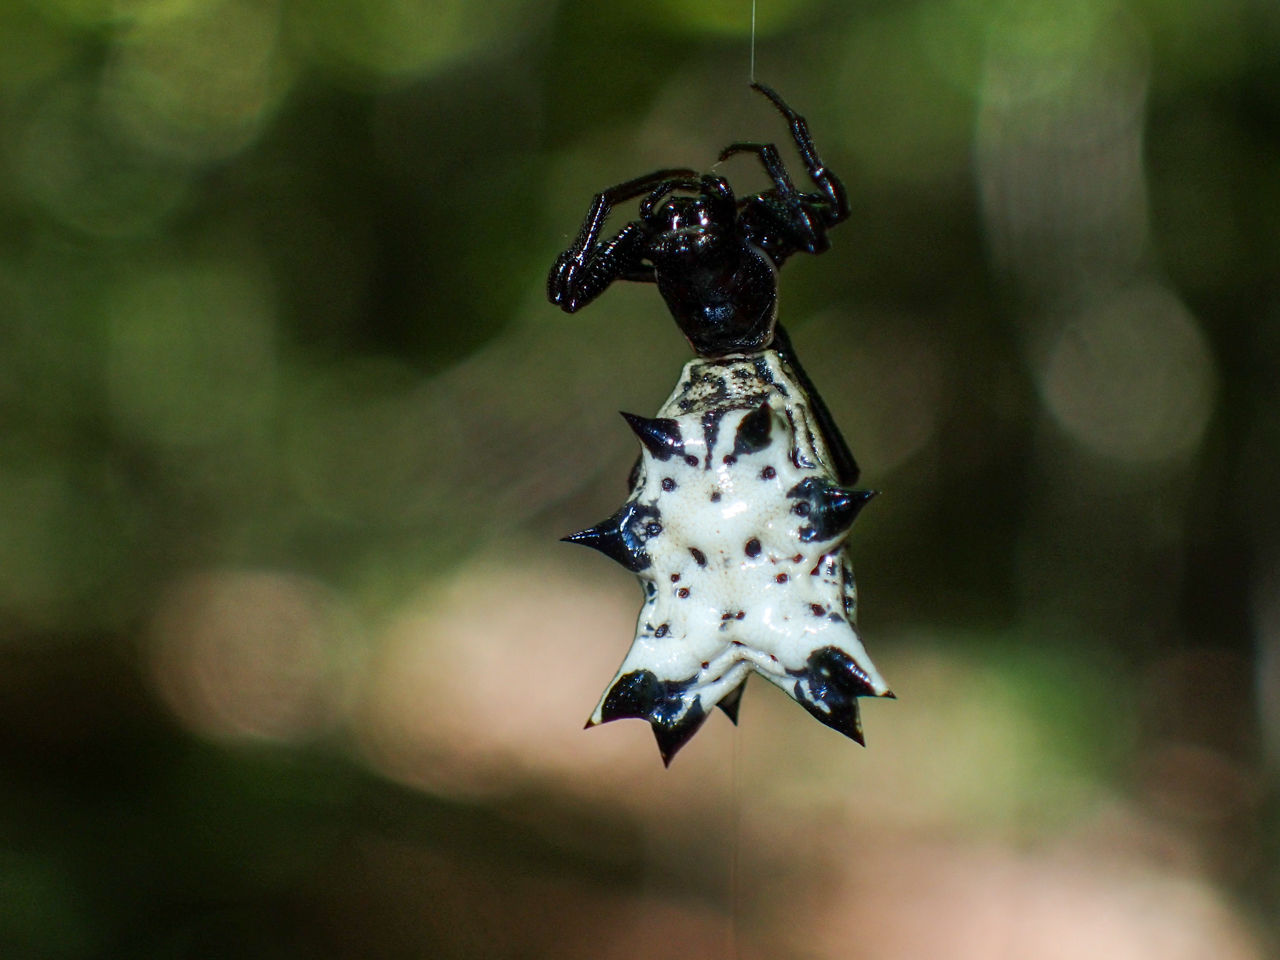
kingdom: Animalia
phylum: Arthropoda
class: Arachnida
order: Araneae
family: Araneidae
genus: Micrathena
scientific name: Micrathena gracilis
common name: Orb weavers
